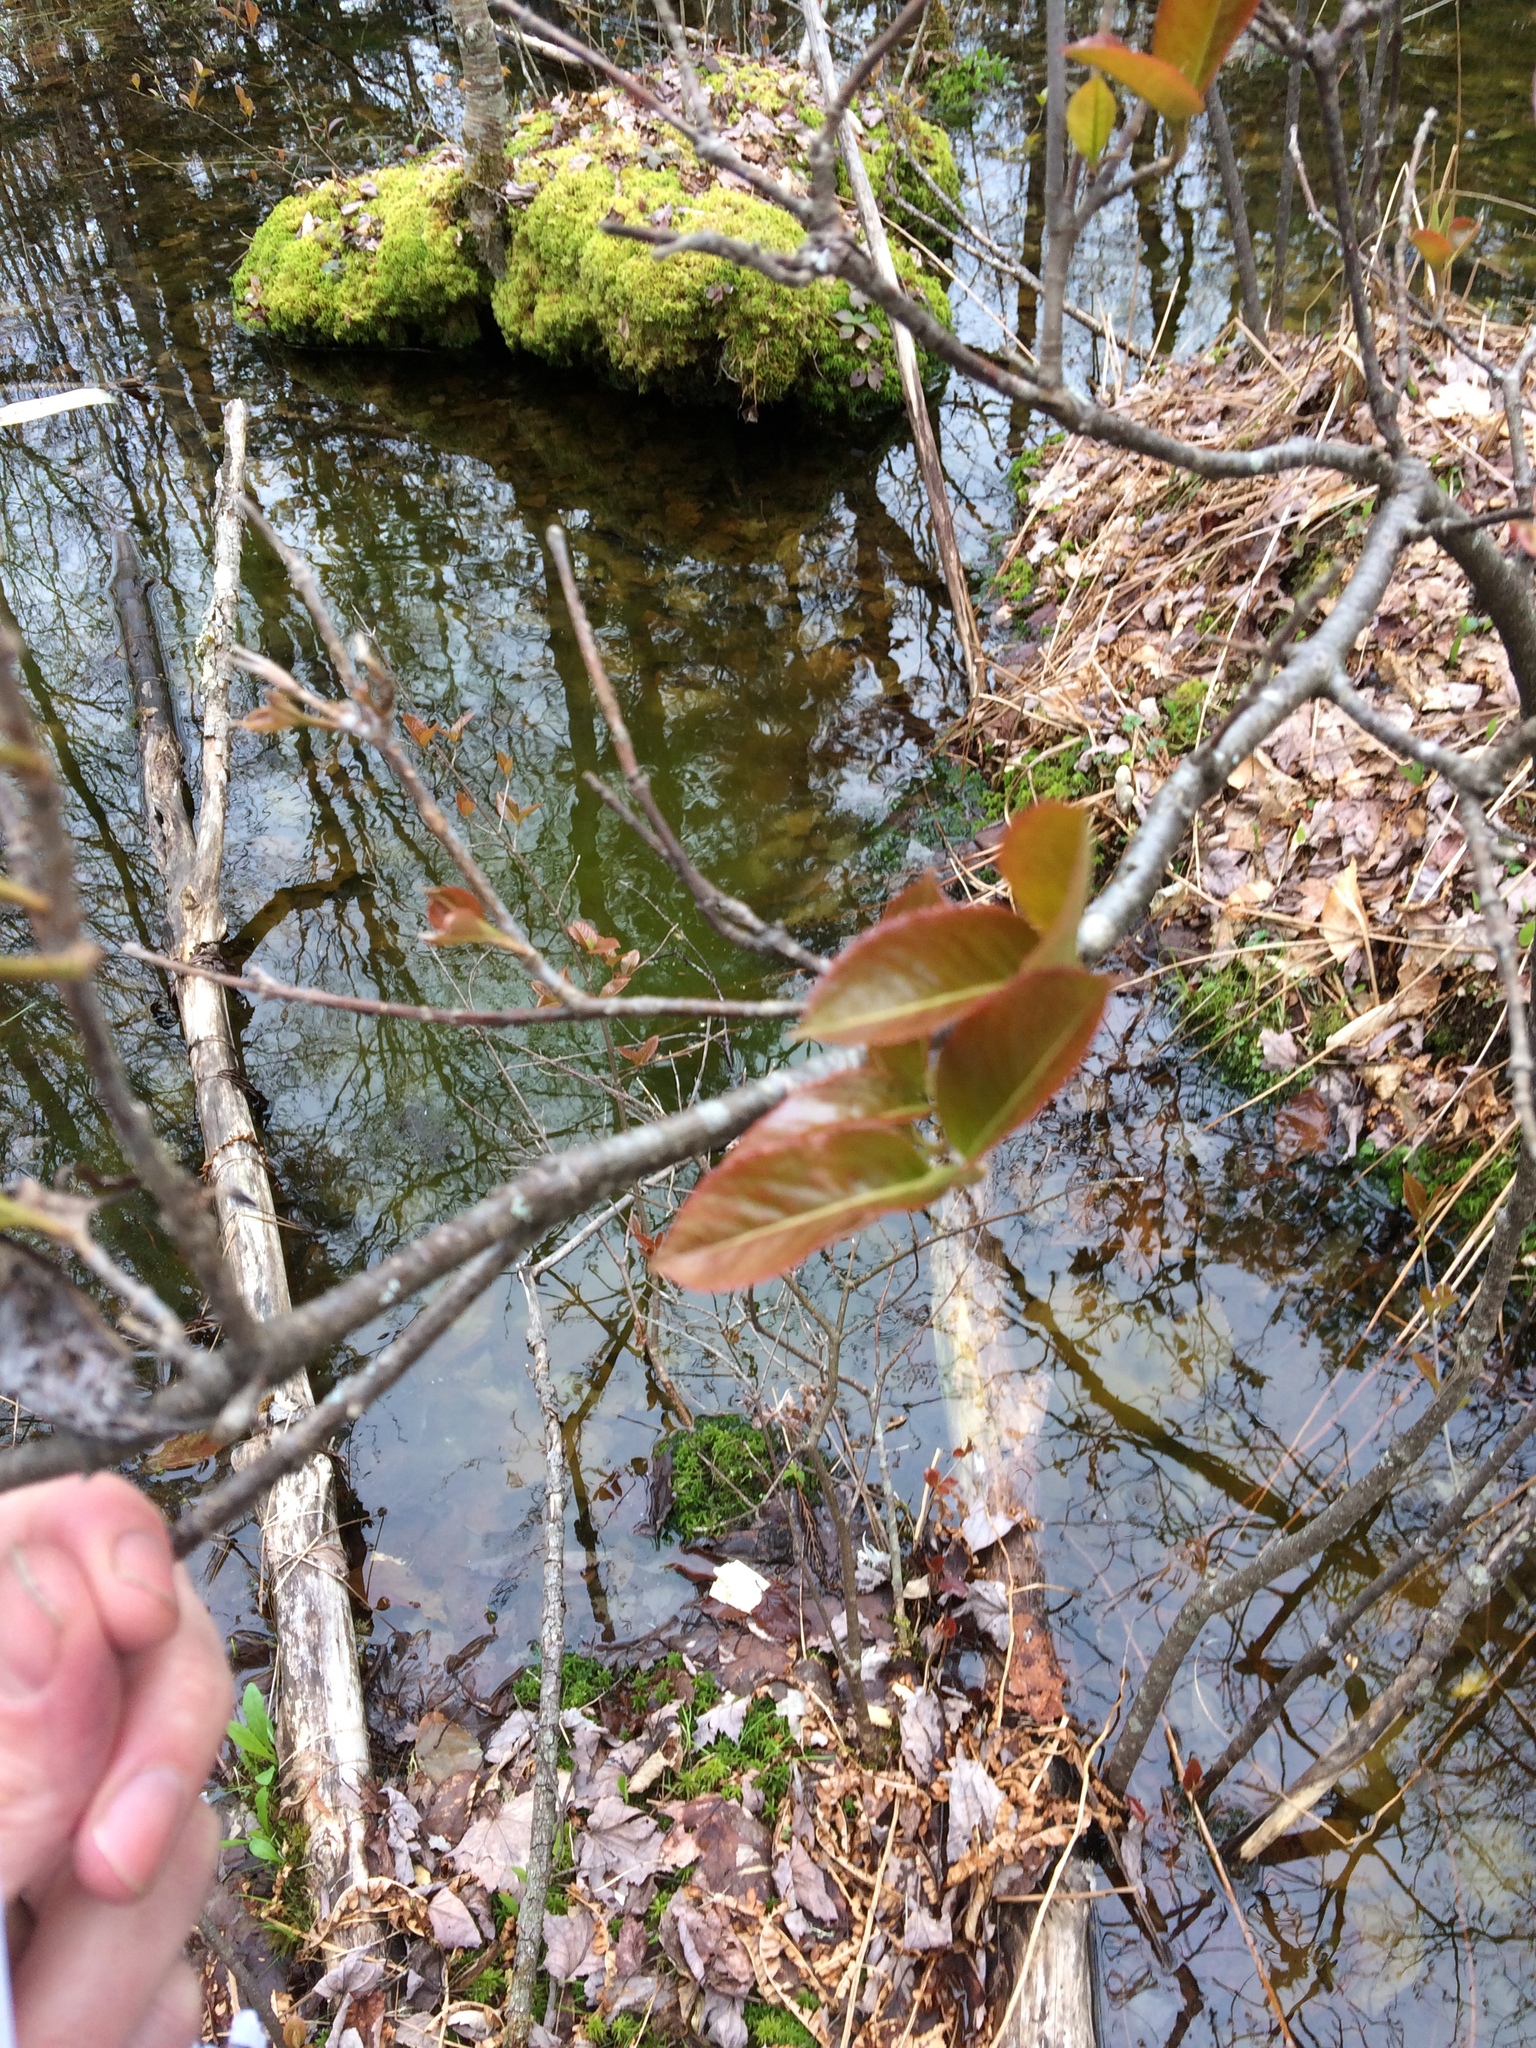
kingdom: Plantae
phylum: Tracheophyta
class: Magnoliopsida
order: Dipsacales
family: Viburnaceae
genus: Viburnum
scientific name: Viburnum cassinoides
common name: Swamp haw
